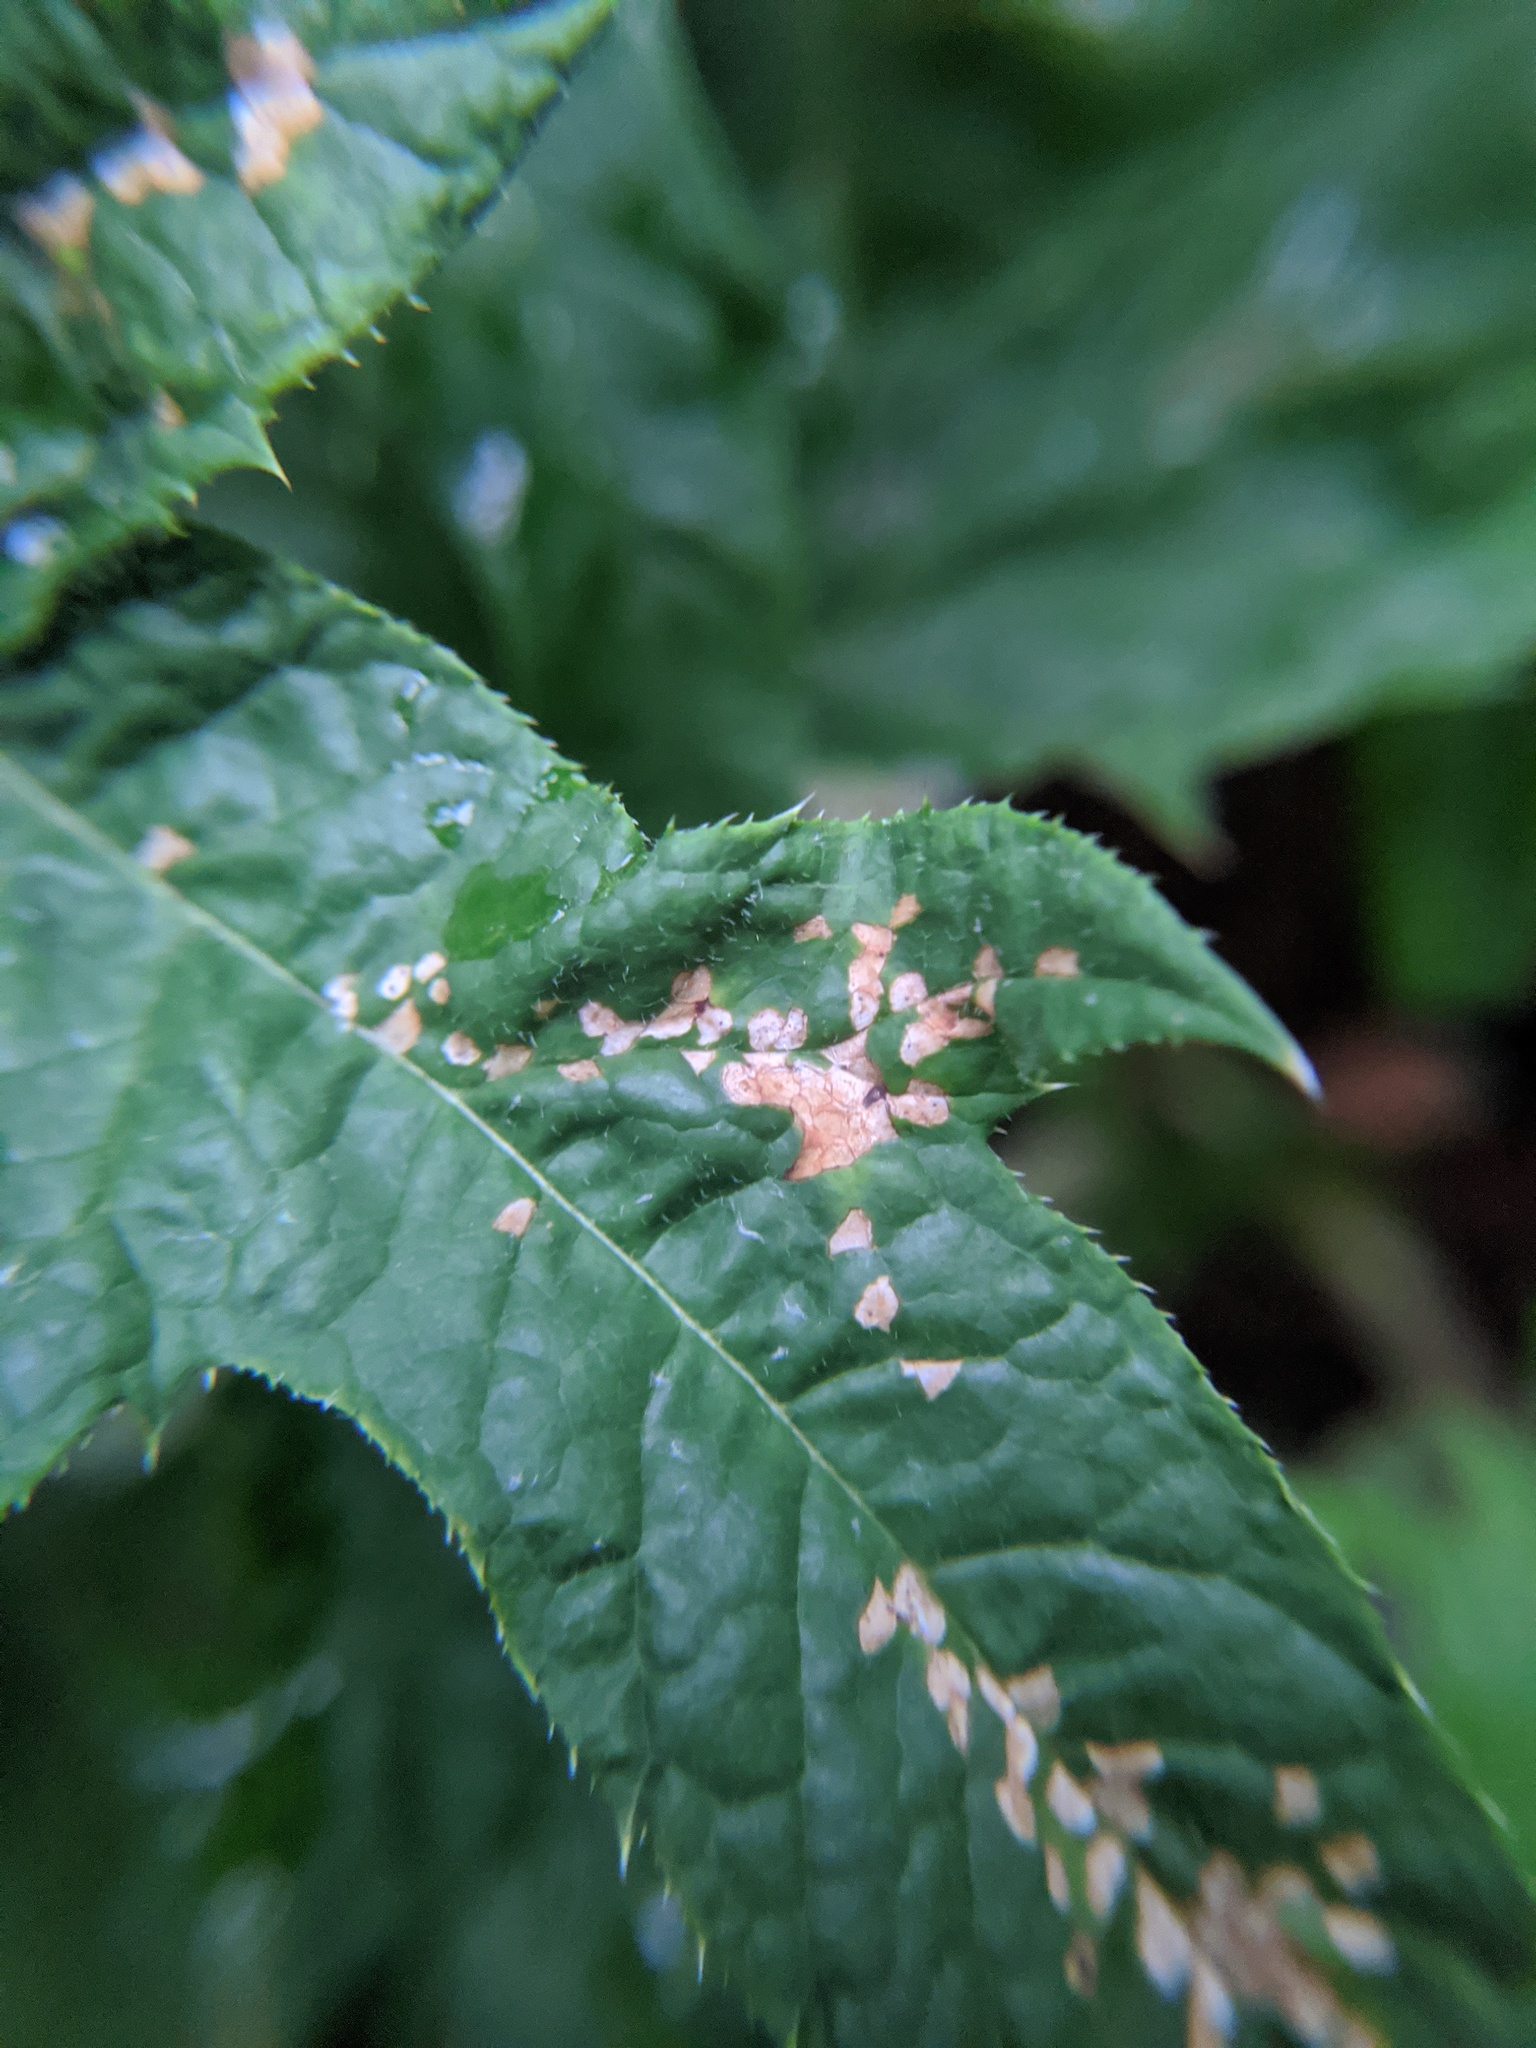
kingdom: Animalia
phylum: Arthropoda
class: Insecta
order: Hemiptera
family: Miridae
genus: Poecilocapsus
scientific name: Poecilocapsus lineatus
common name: Four-lined plant bug
